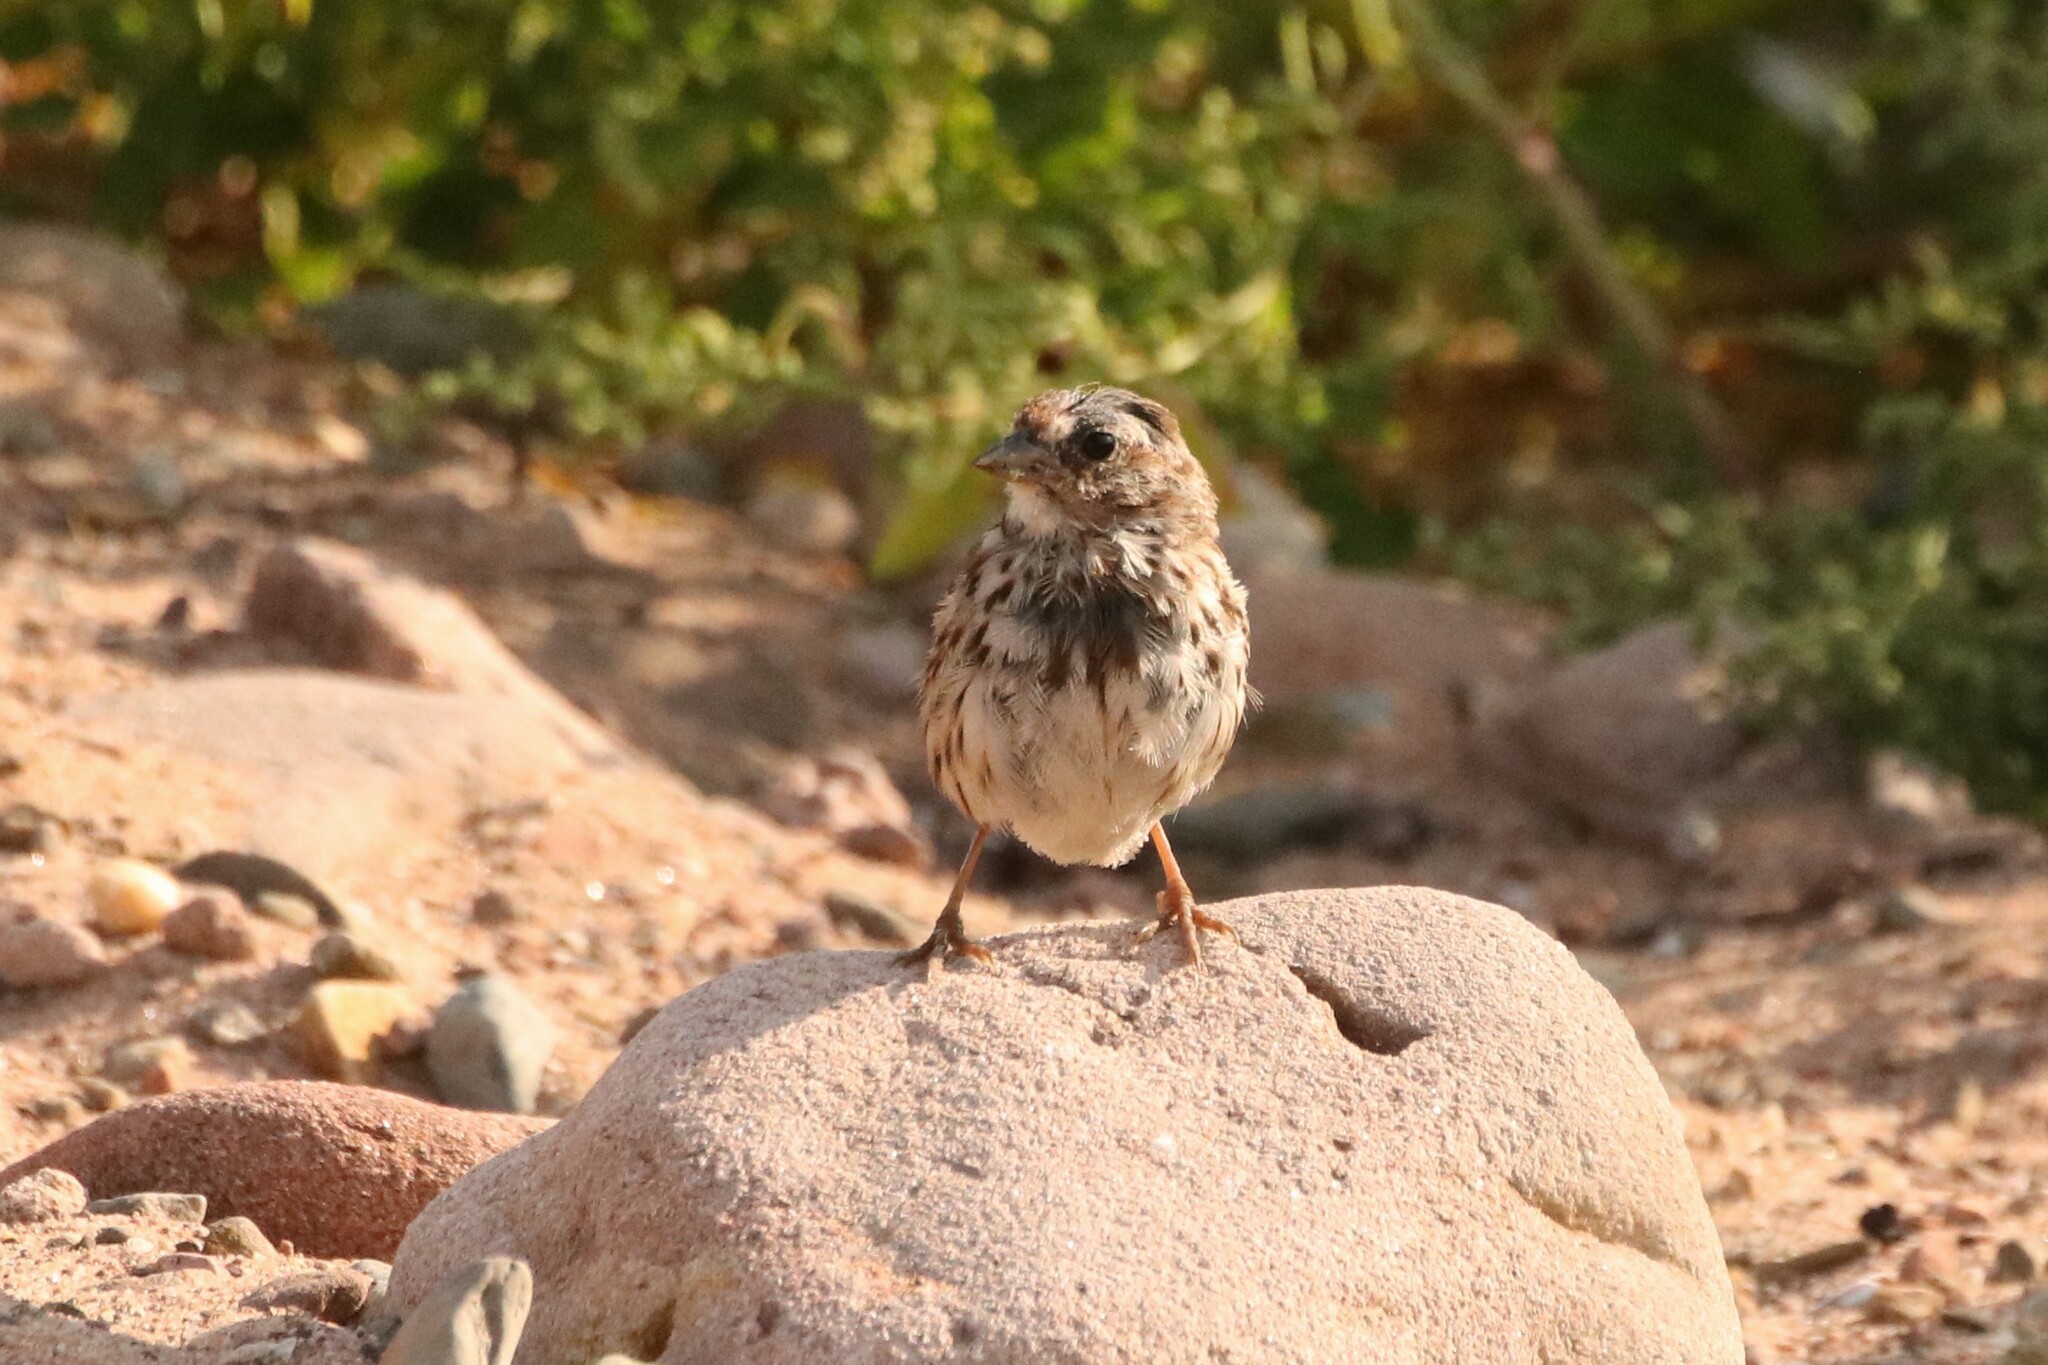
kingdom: Animalia
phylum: Chordata
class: Aves
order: Passeriformes
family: Passerellidae
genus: Melospiza
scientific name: Melospiza melodia
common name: Song sparrow
